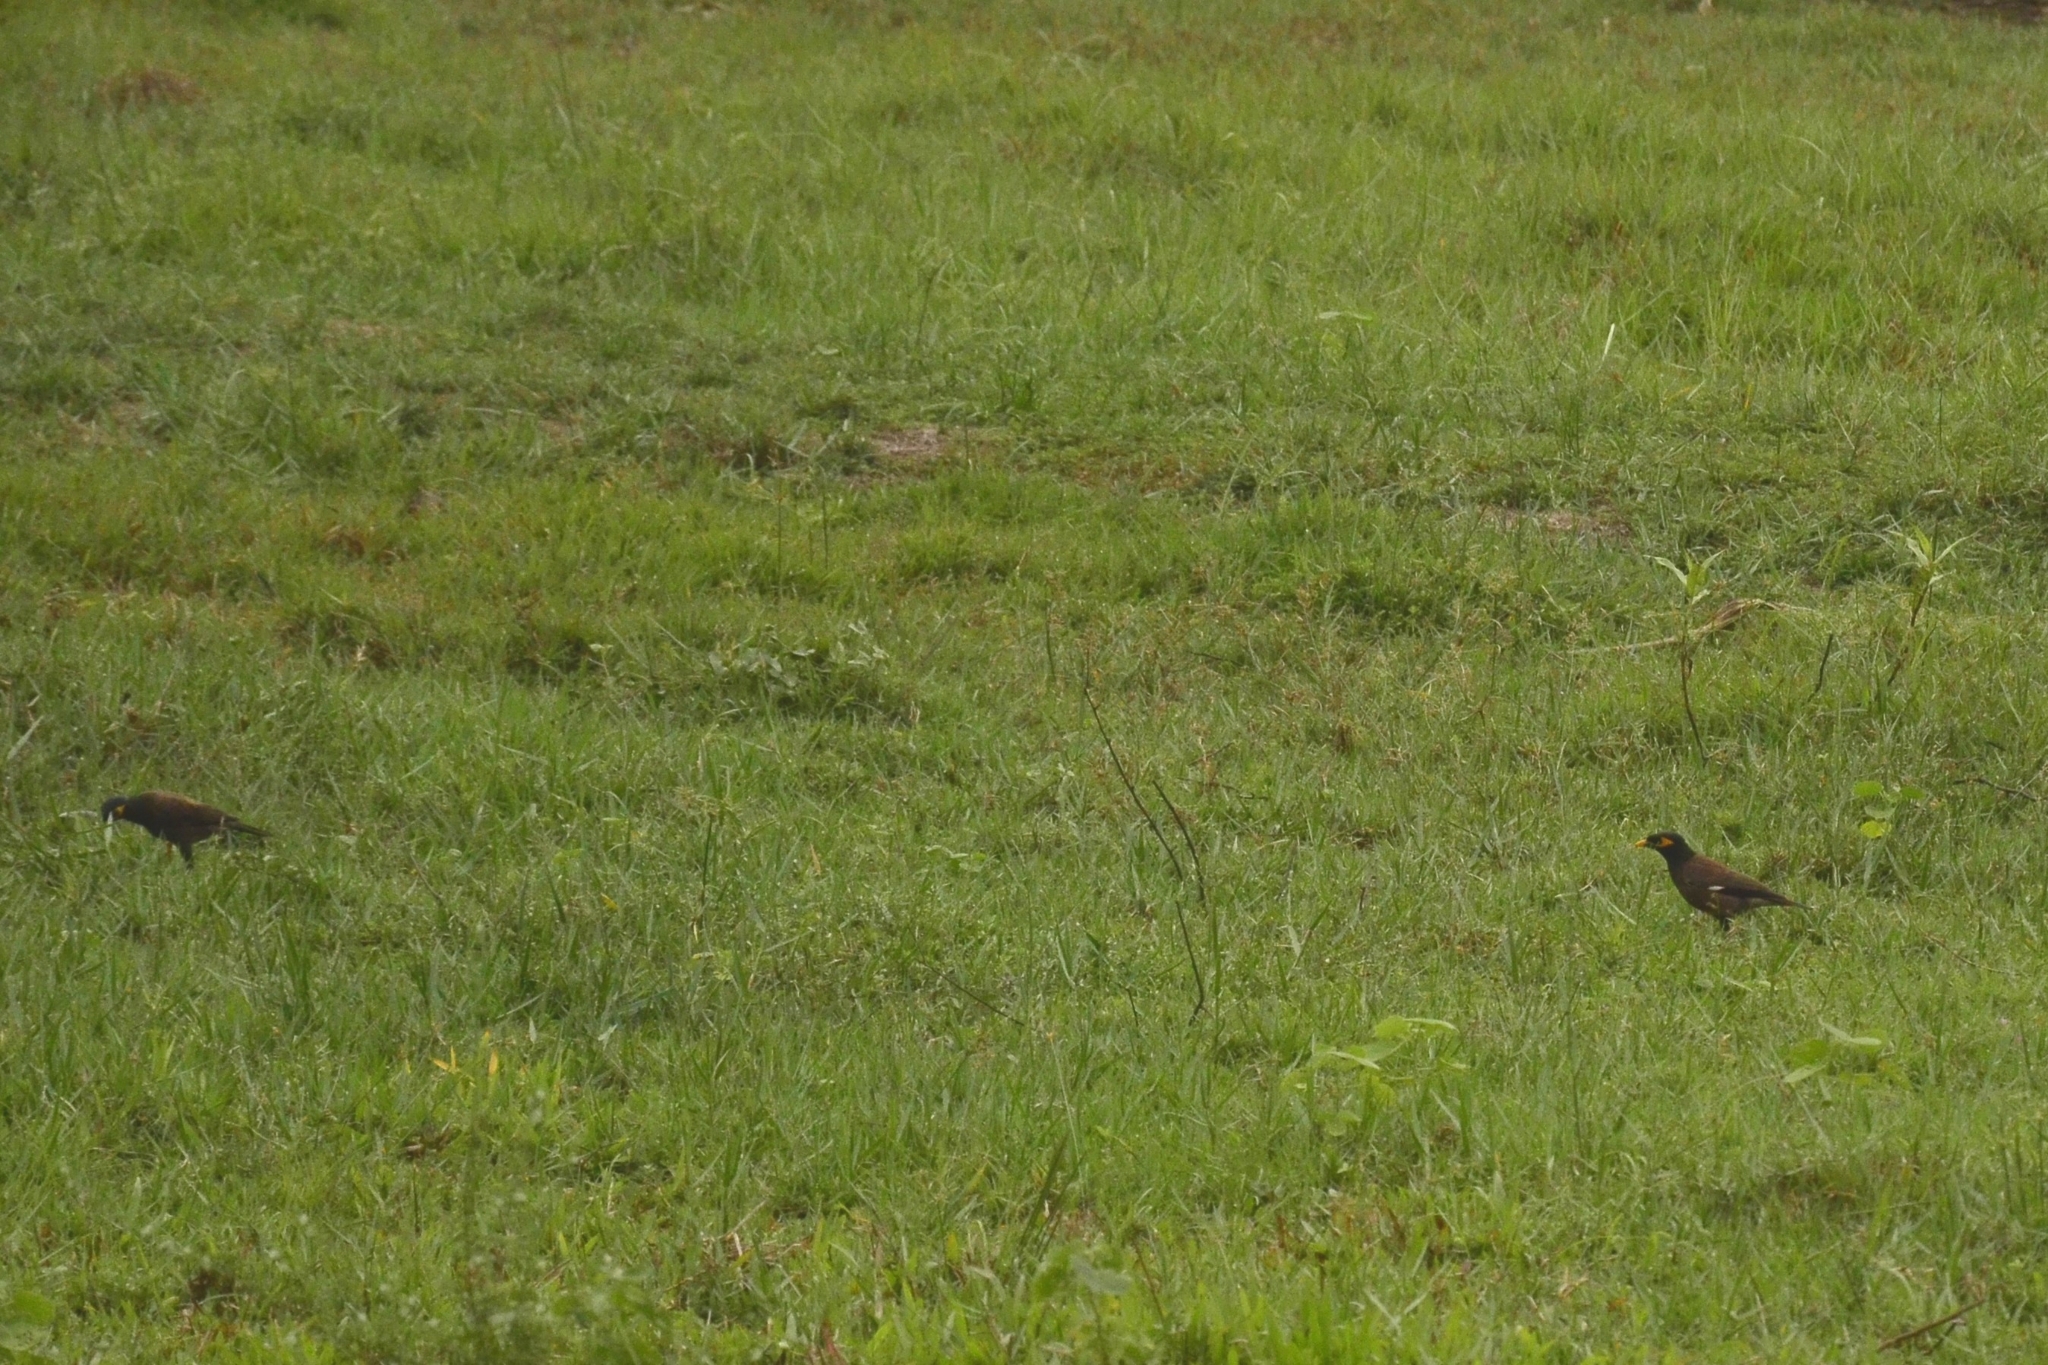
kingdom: Animalia
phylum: Chordata
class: Aves
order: Passeriformes
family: Sturnidae
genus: Acridotheres
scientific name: Acridotheres tristis
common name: Common myna
